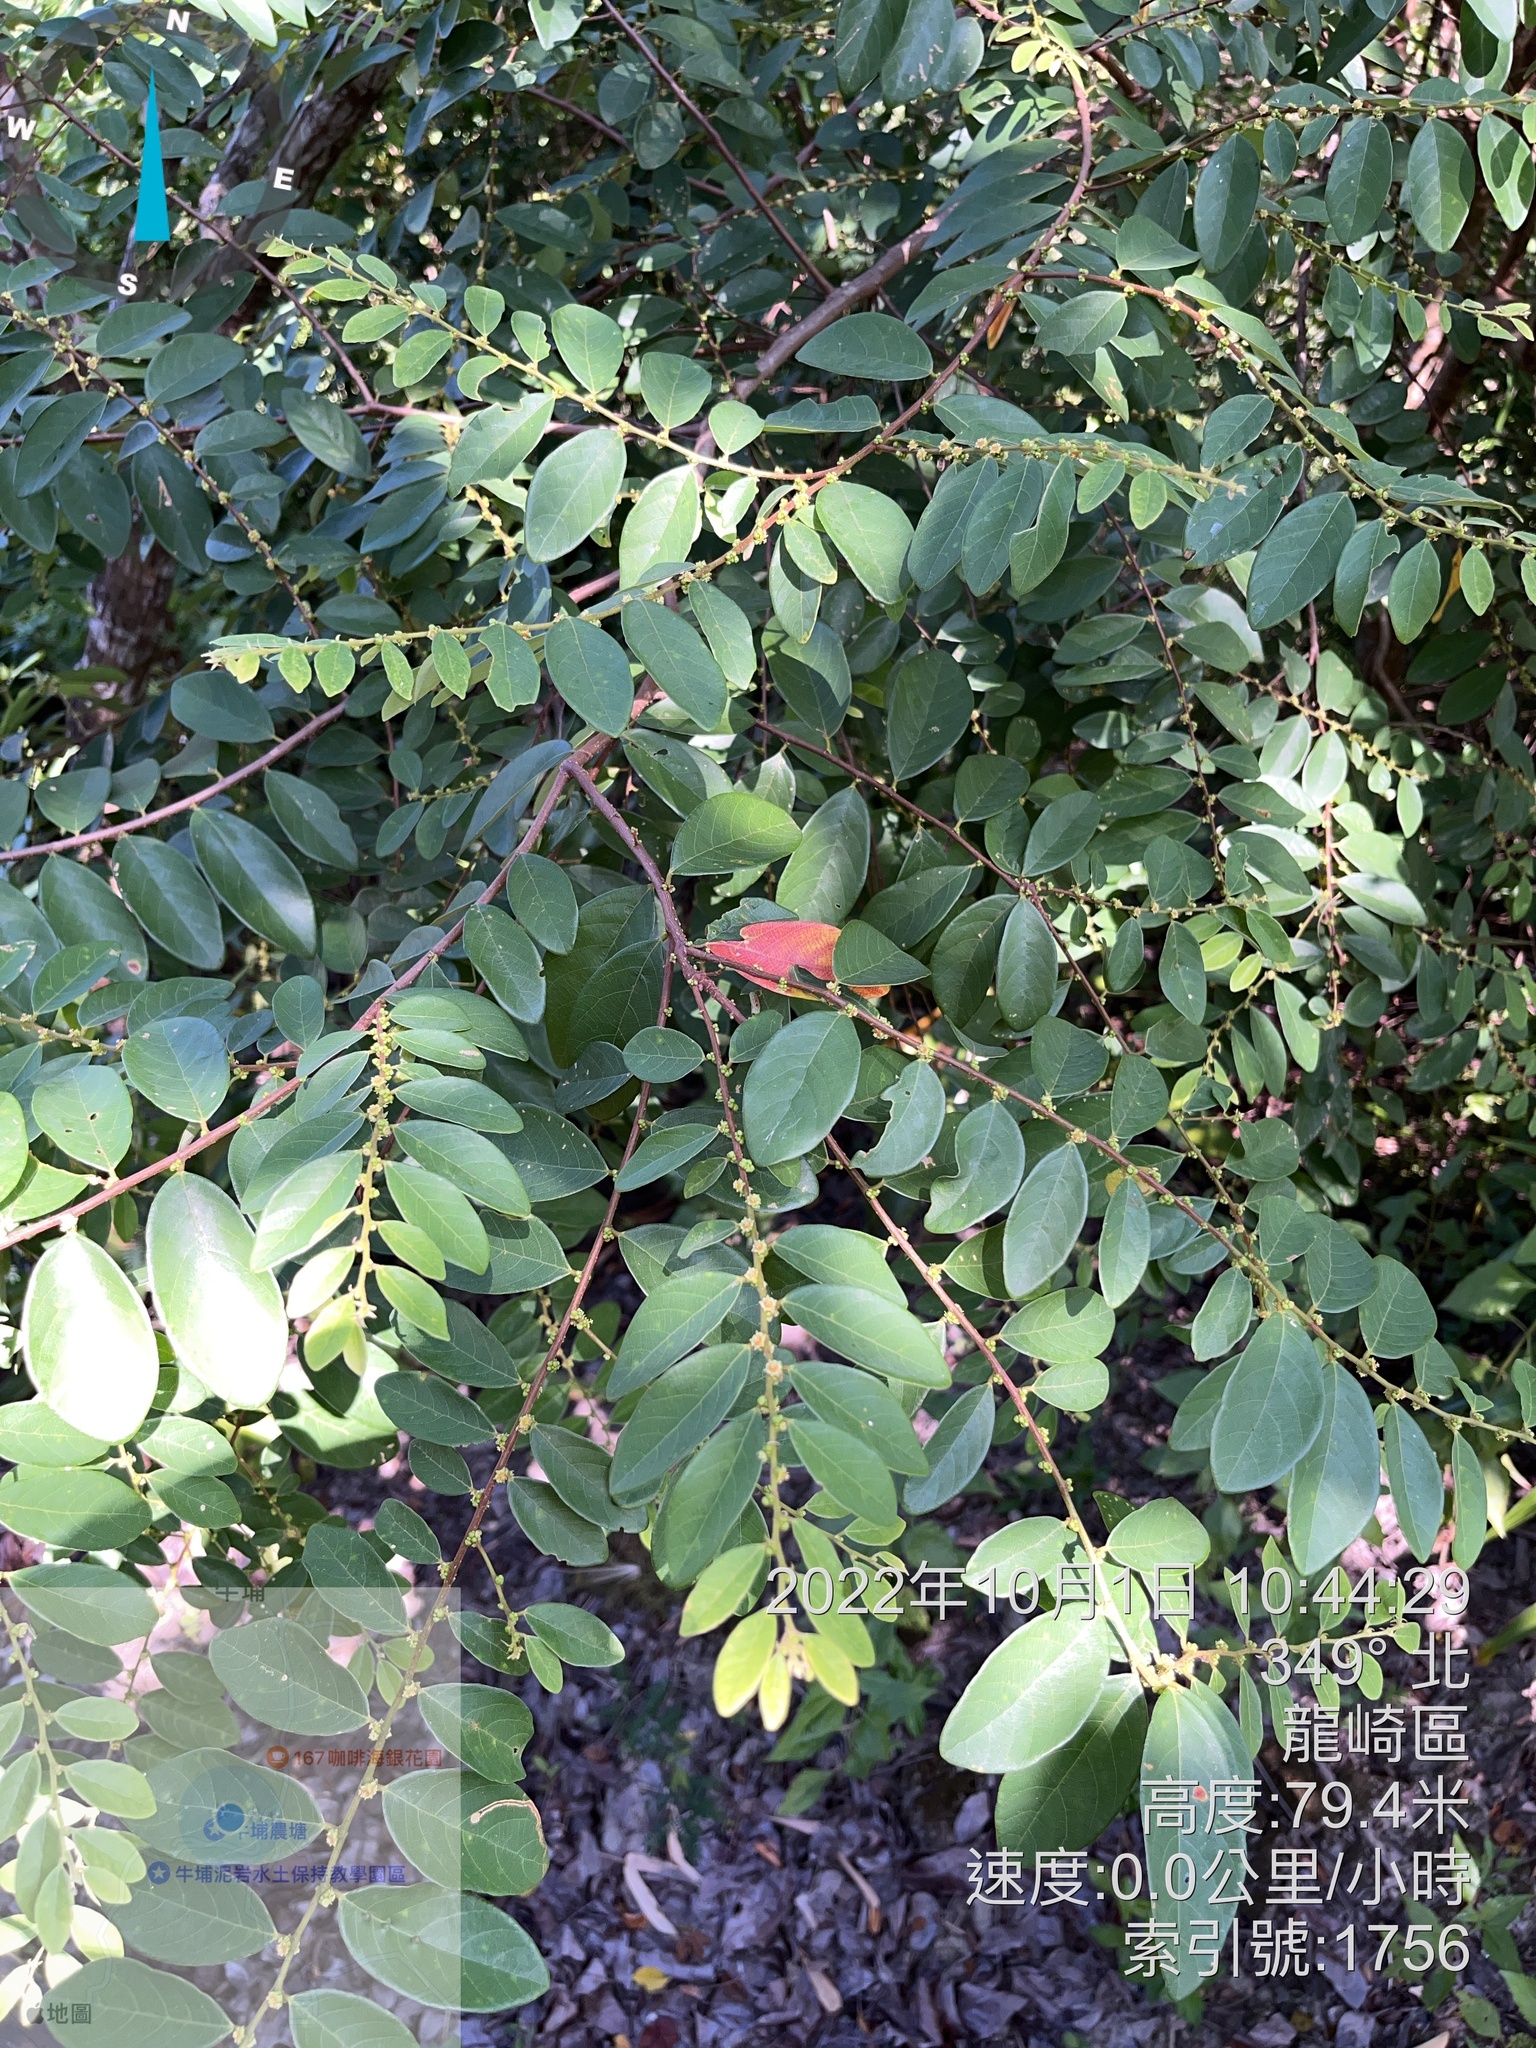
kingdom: Plantae
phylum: Tracheophyta
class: Magnoliopsida
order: Malpighiales
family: Phyllanthaceae
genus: Bridelia
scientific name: Bridelia tomentosa
